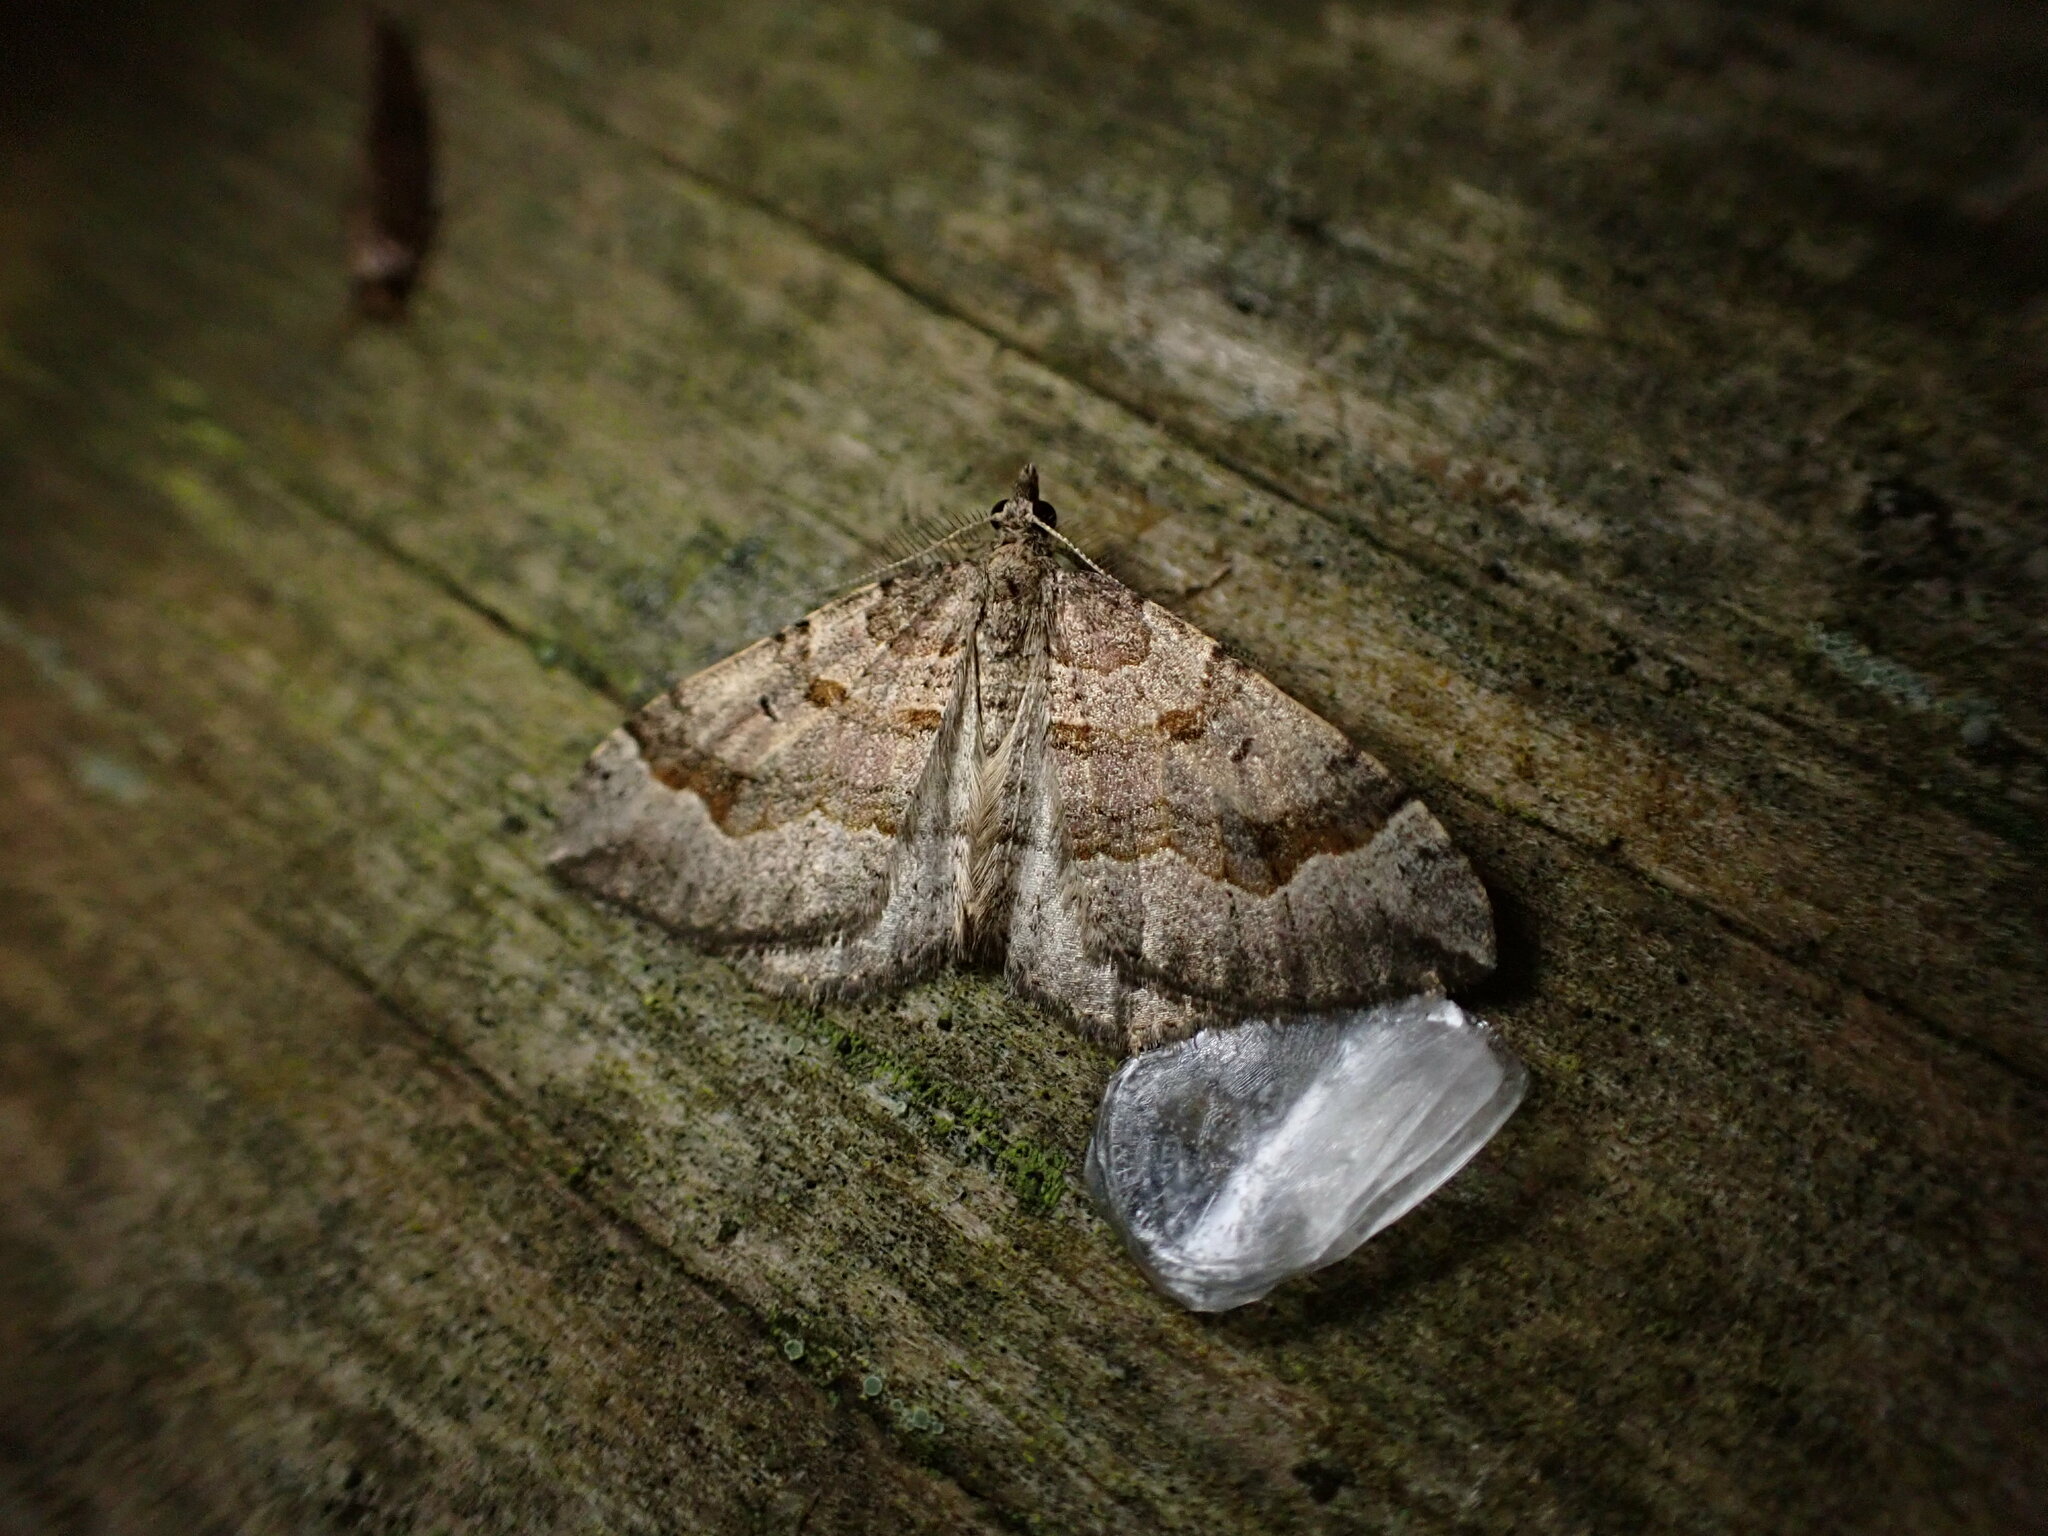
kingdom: Animalia
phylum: Arthropoda
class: Insecta
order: Lepidoptera
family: Geometridae
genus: Epyaxa
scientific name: Epyaxa rosearia
